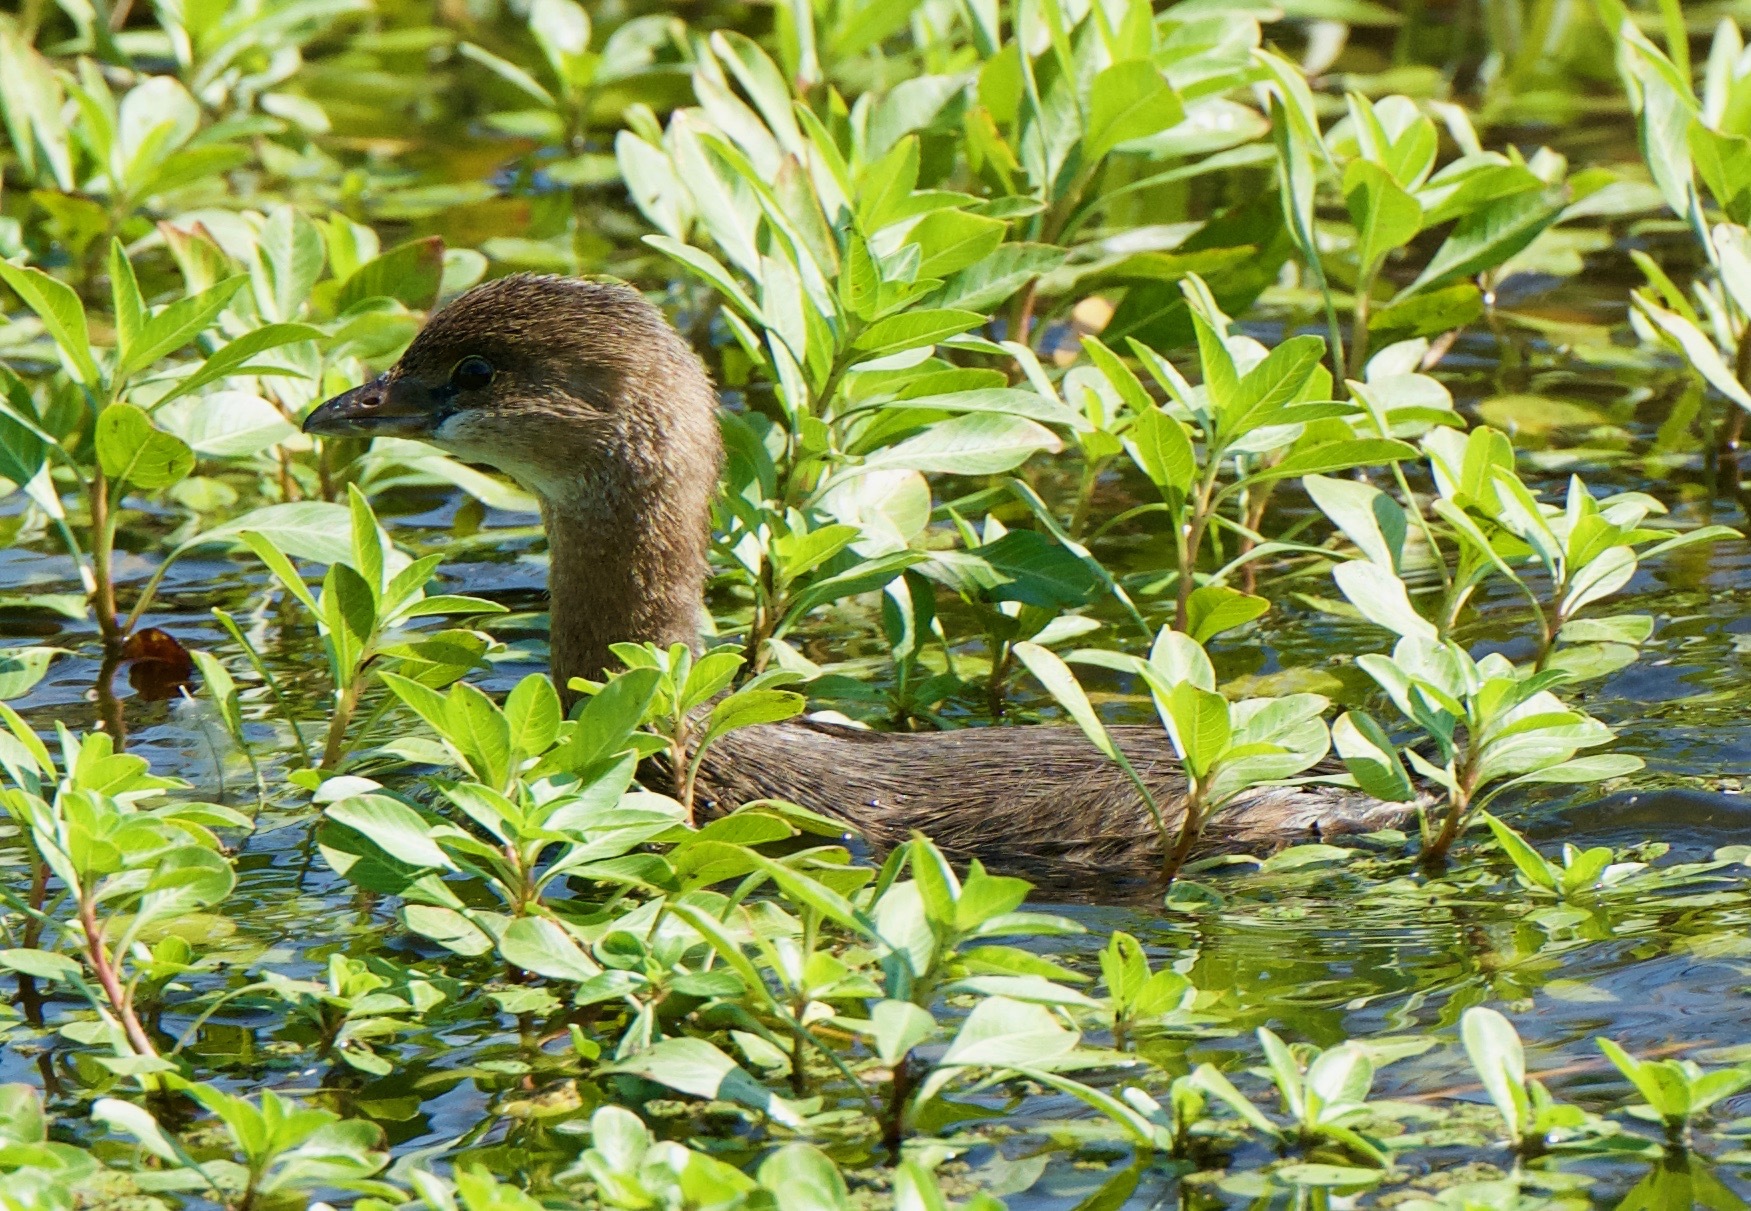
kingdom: Animalia
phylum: Chordata
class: Aves
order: Podicipediformes
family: Podicipedidae
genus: Podilymbus
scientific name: Podilymbus podiceps
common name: Pied-billed grebe
